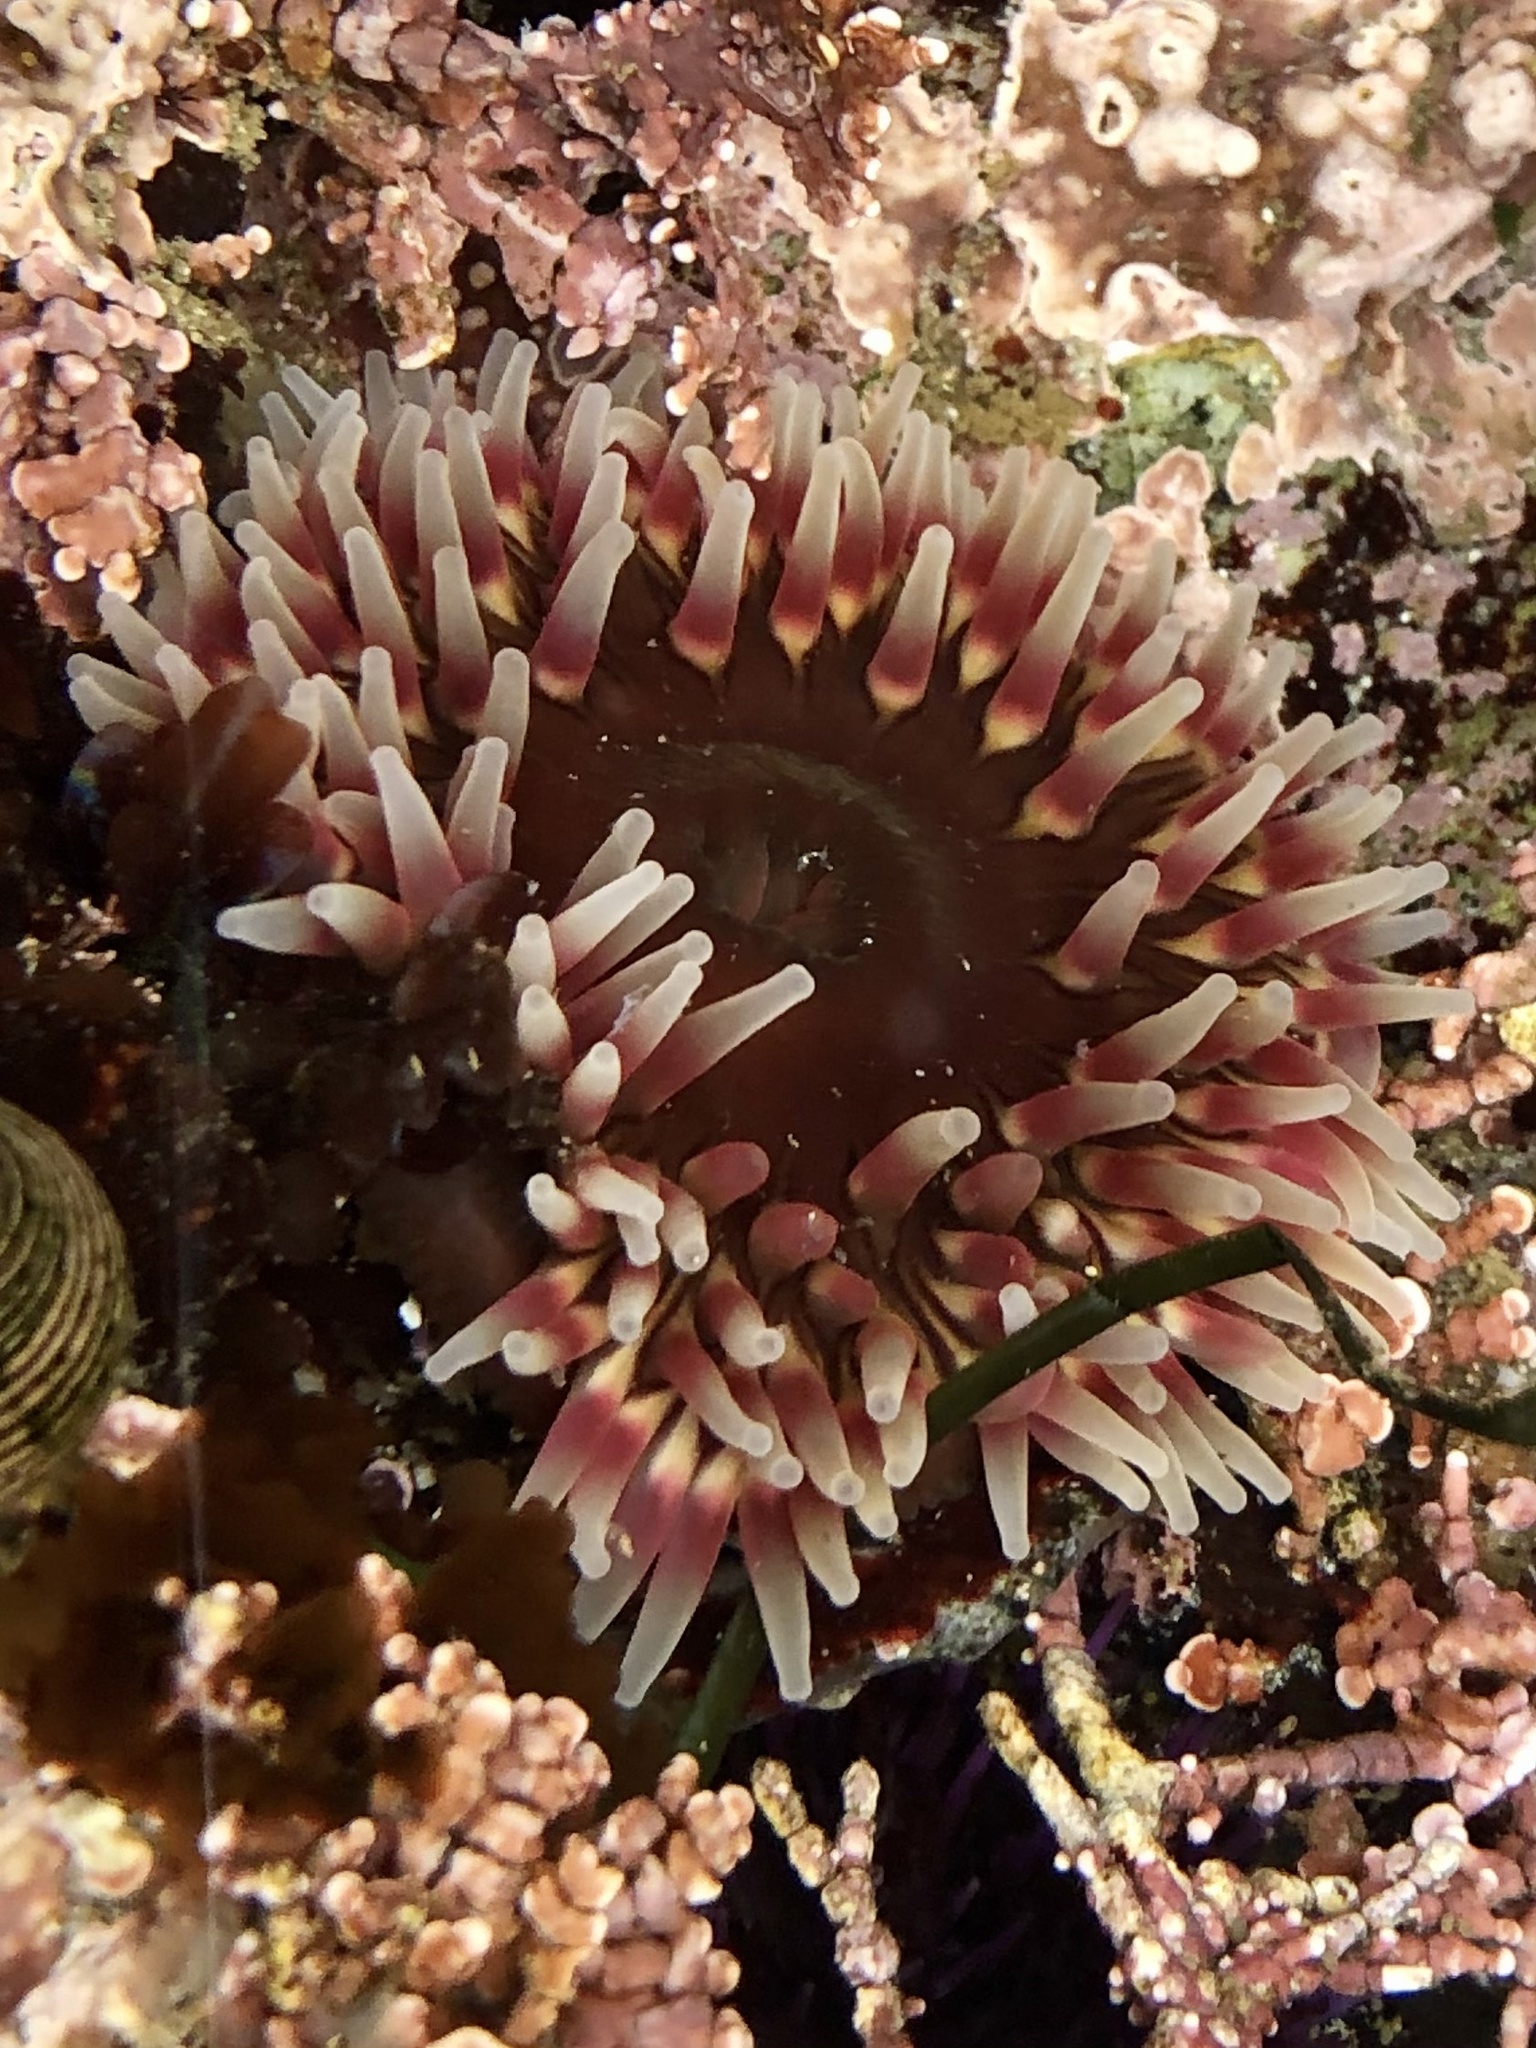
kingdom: Animalia
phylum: Cnidaria
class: Anthozoa
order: Actiniaria
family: Actiniidae
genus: Urticina
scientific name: Urticina clandestina
